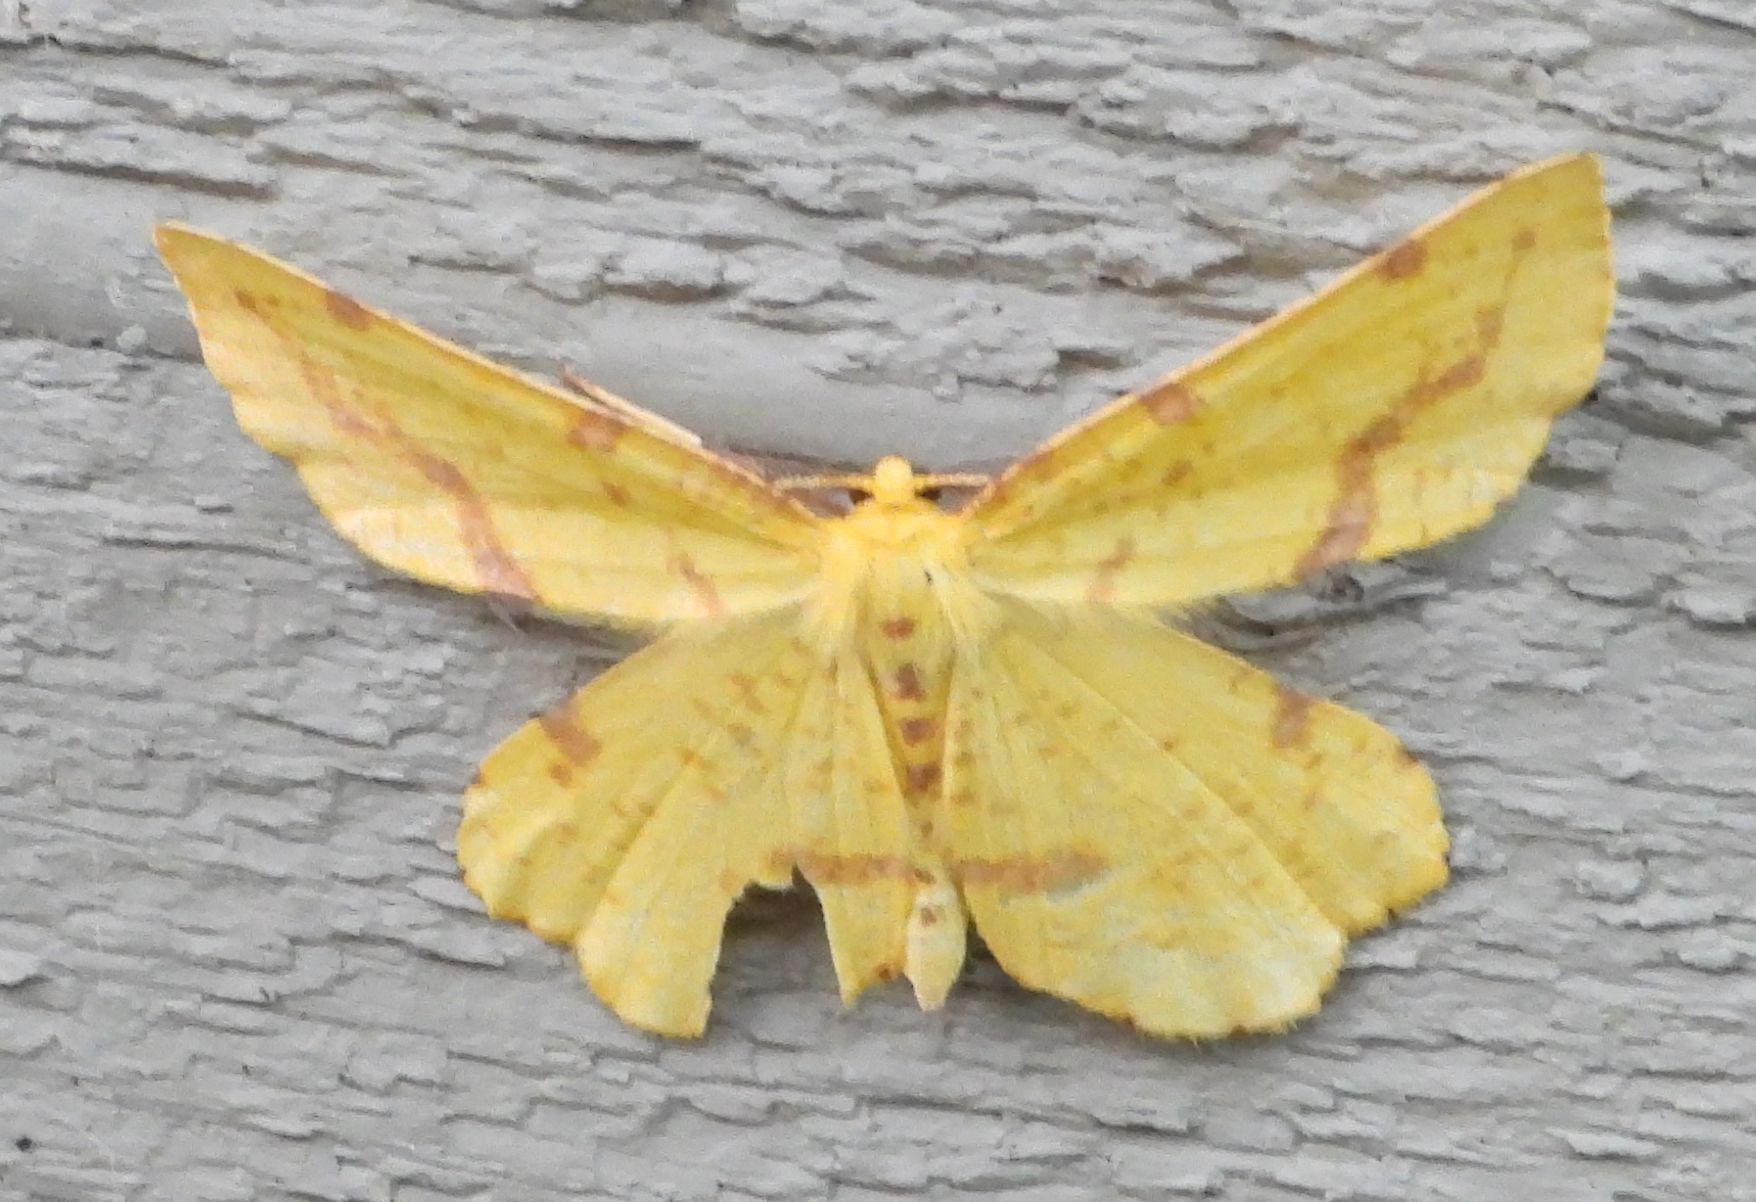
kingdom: Animalia
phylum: Arthropoda
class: Insecta
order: Lepidoptera
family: Geometridae
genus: Xanthotype
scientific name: Xanthotype
